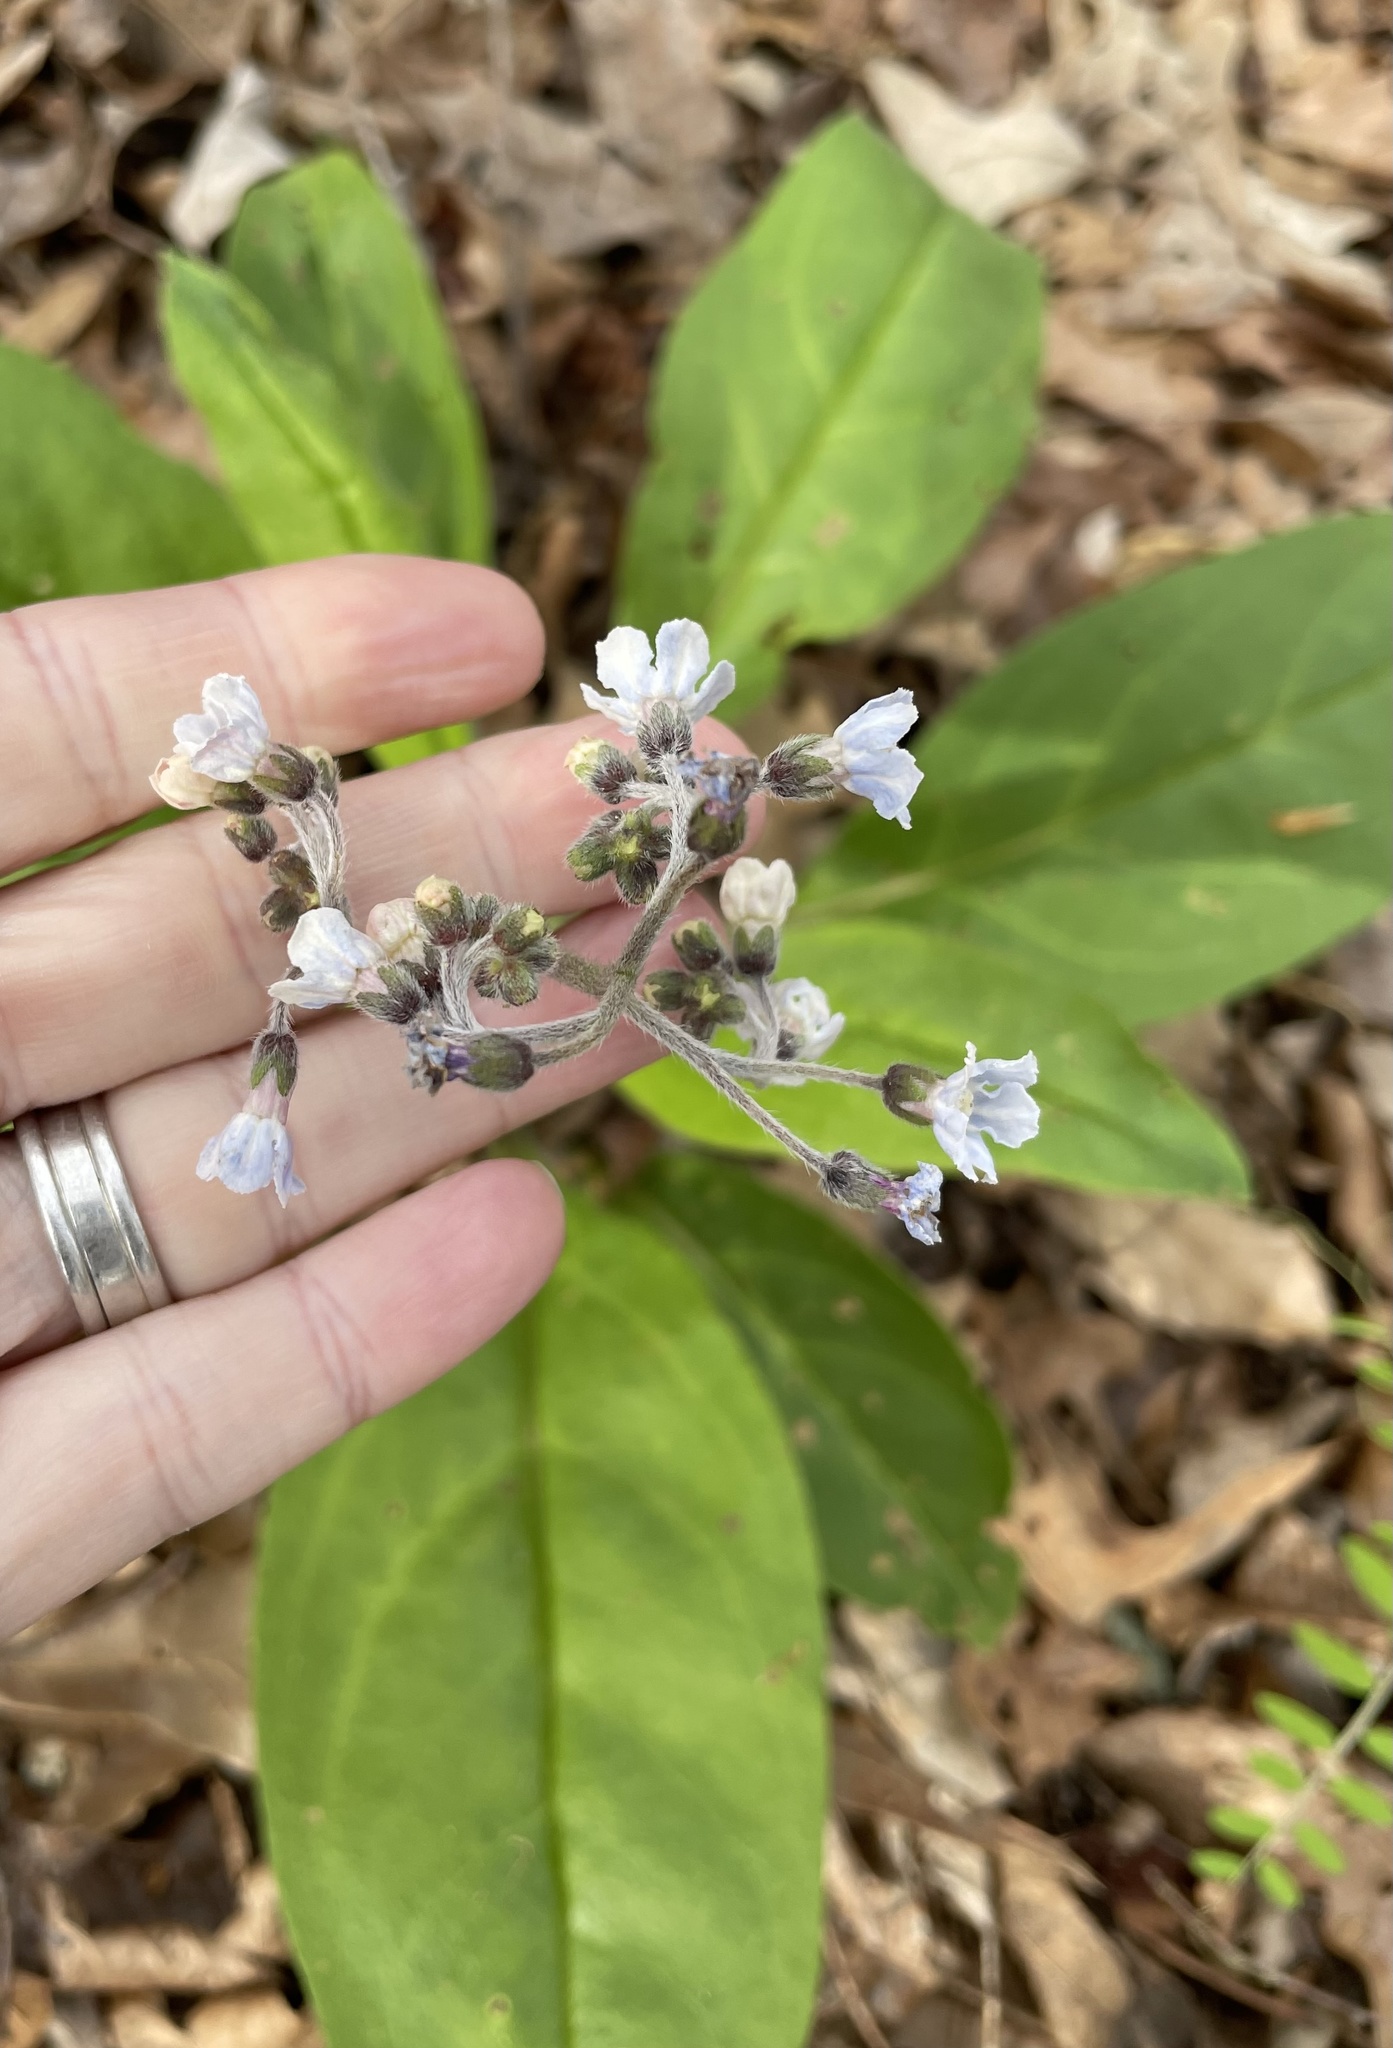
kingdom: Plantae
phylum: Tracheophyta
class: Magnoliopsida
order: Boraginales
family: Boraginaceae
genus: Andersonglossum
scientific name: Andersonglossum virginianum
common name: Wild comfrey
